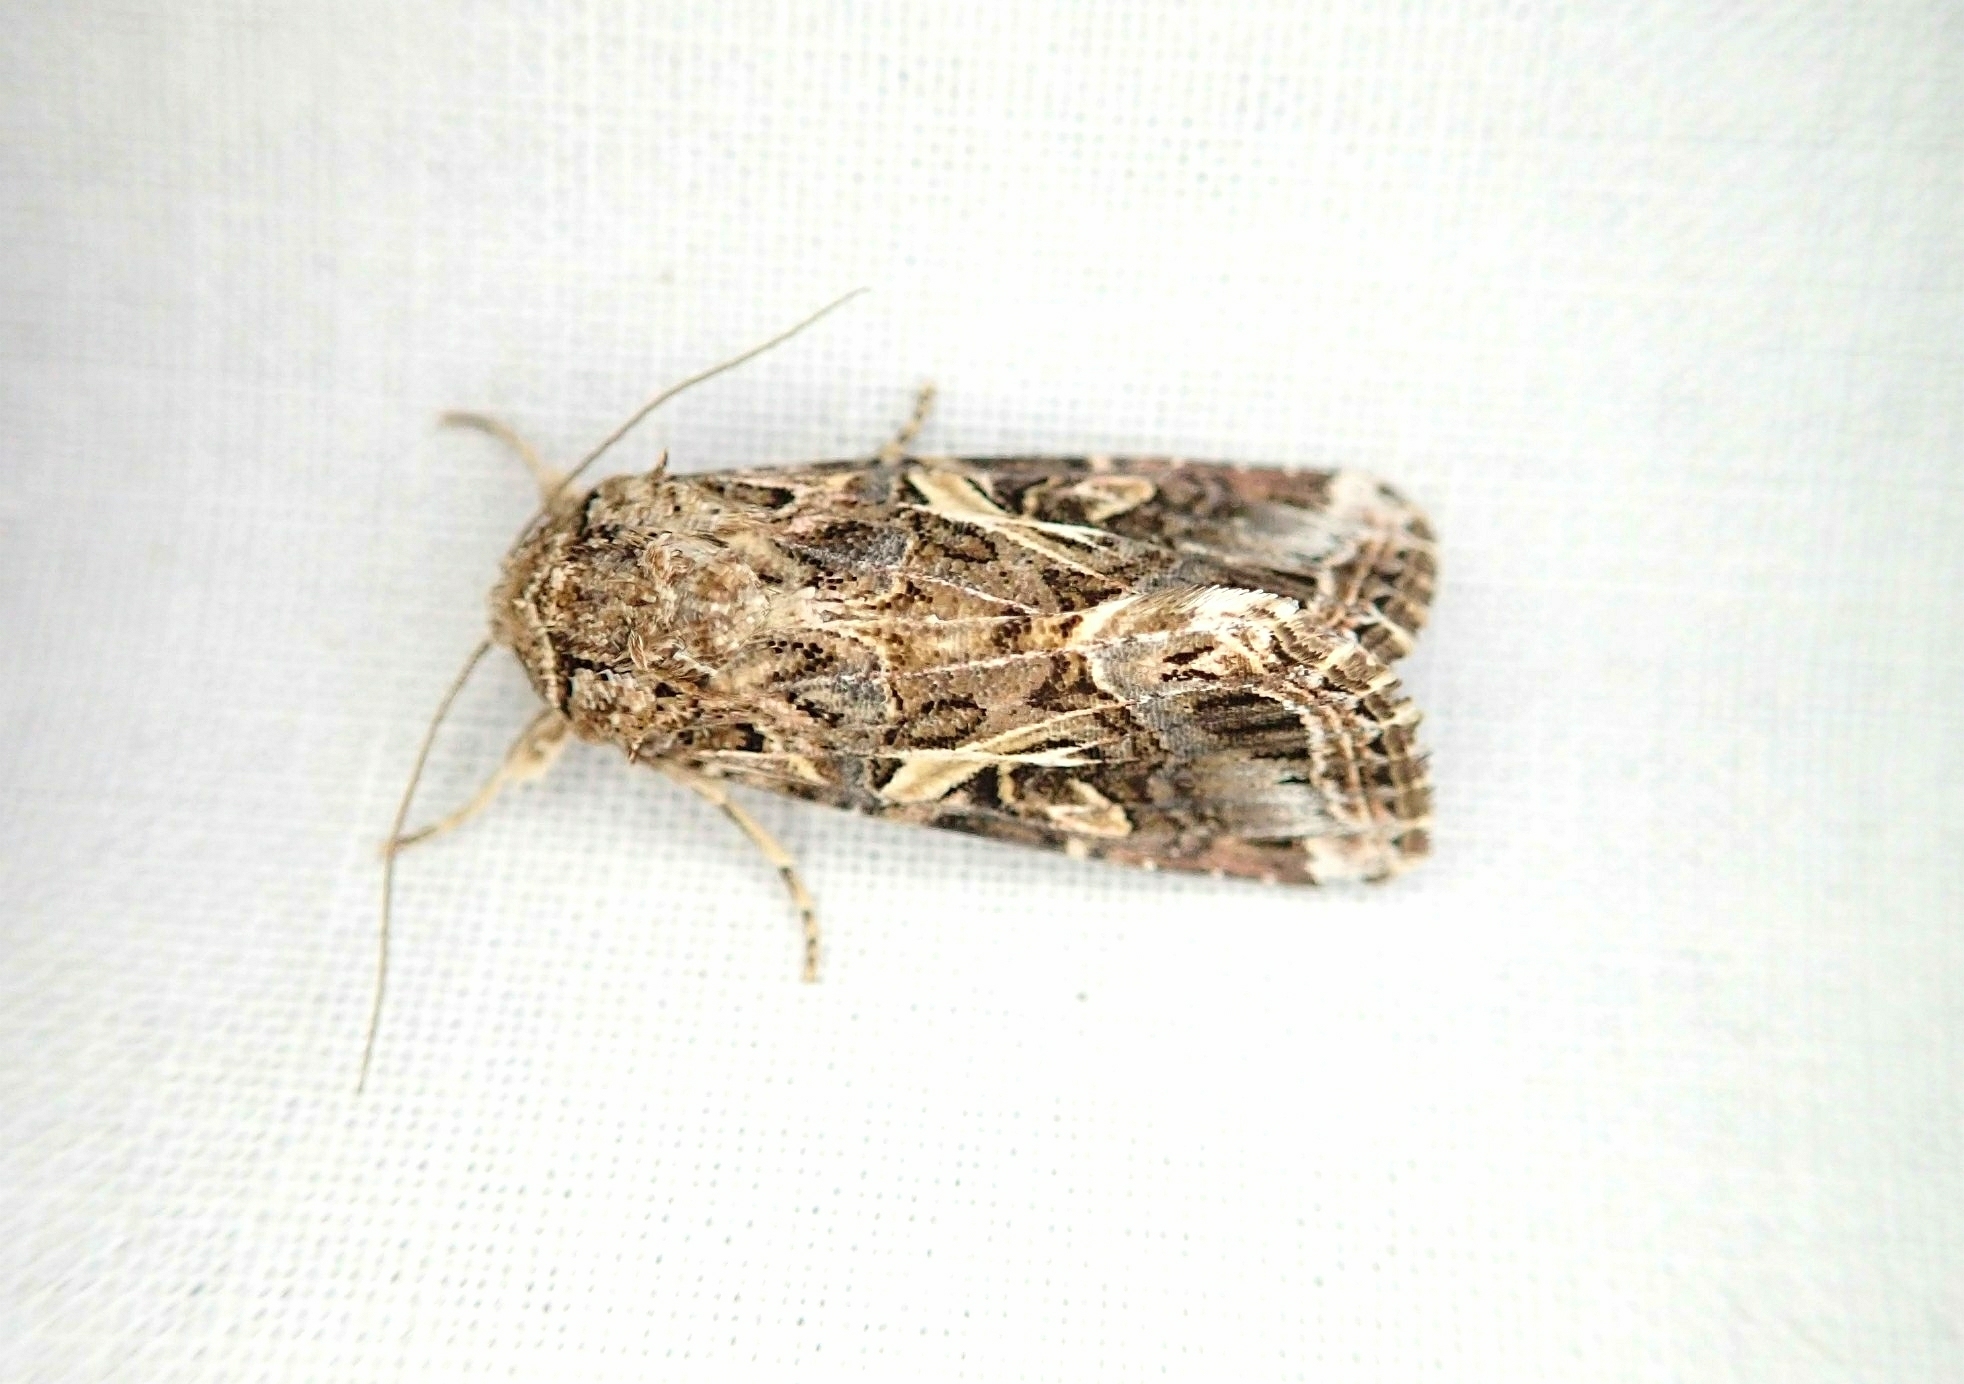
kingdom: Animalia
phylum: Arthropoda
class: Insecta
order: Lepidoptera
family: Noctuidae
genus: Spodoptera
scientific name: Spodoptera ornithogalli
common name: Yellow-striped armyworm
